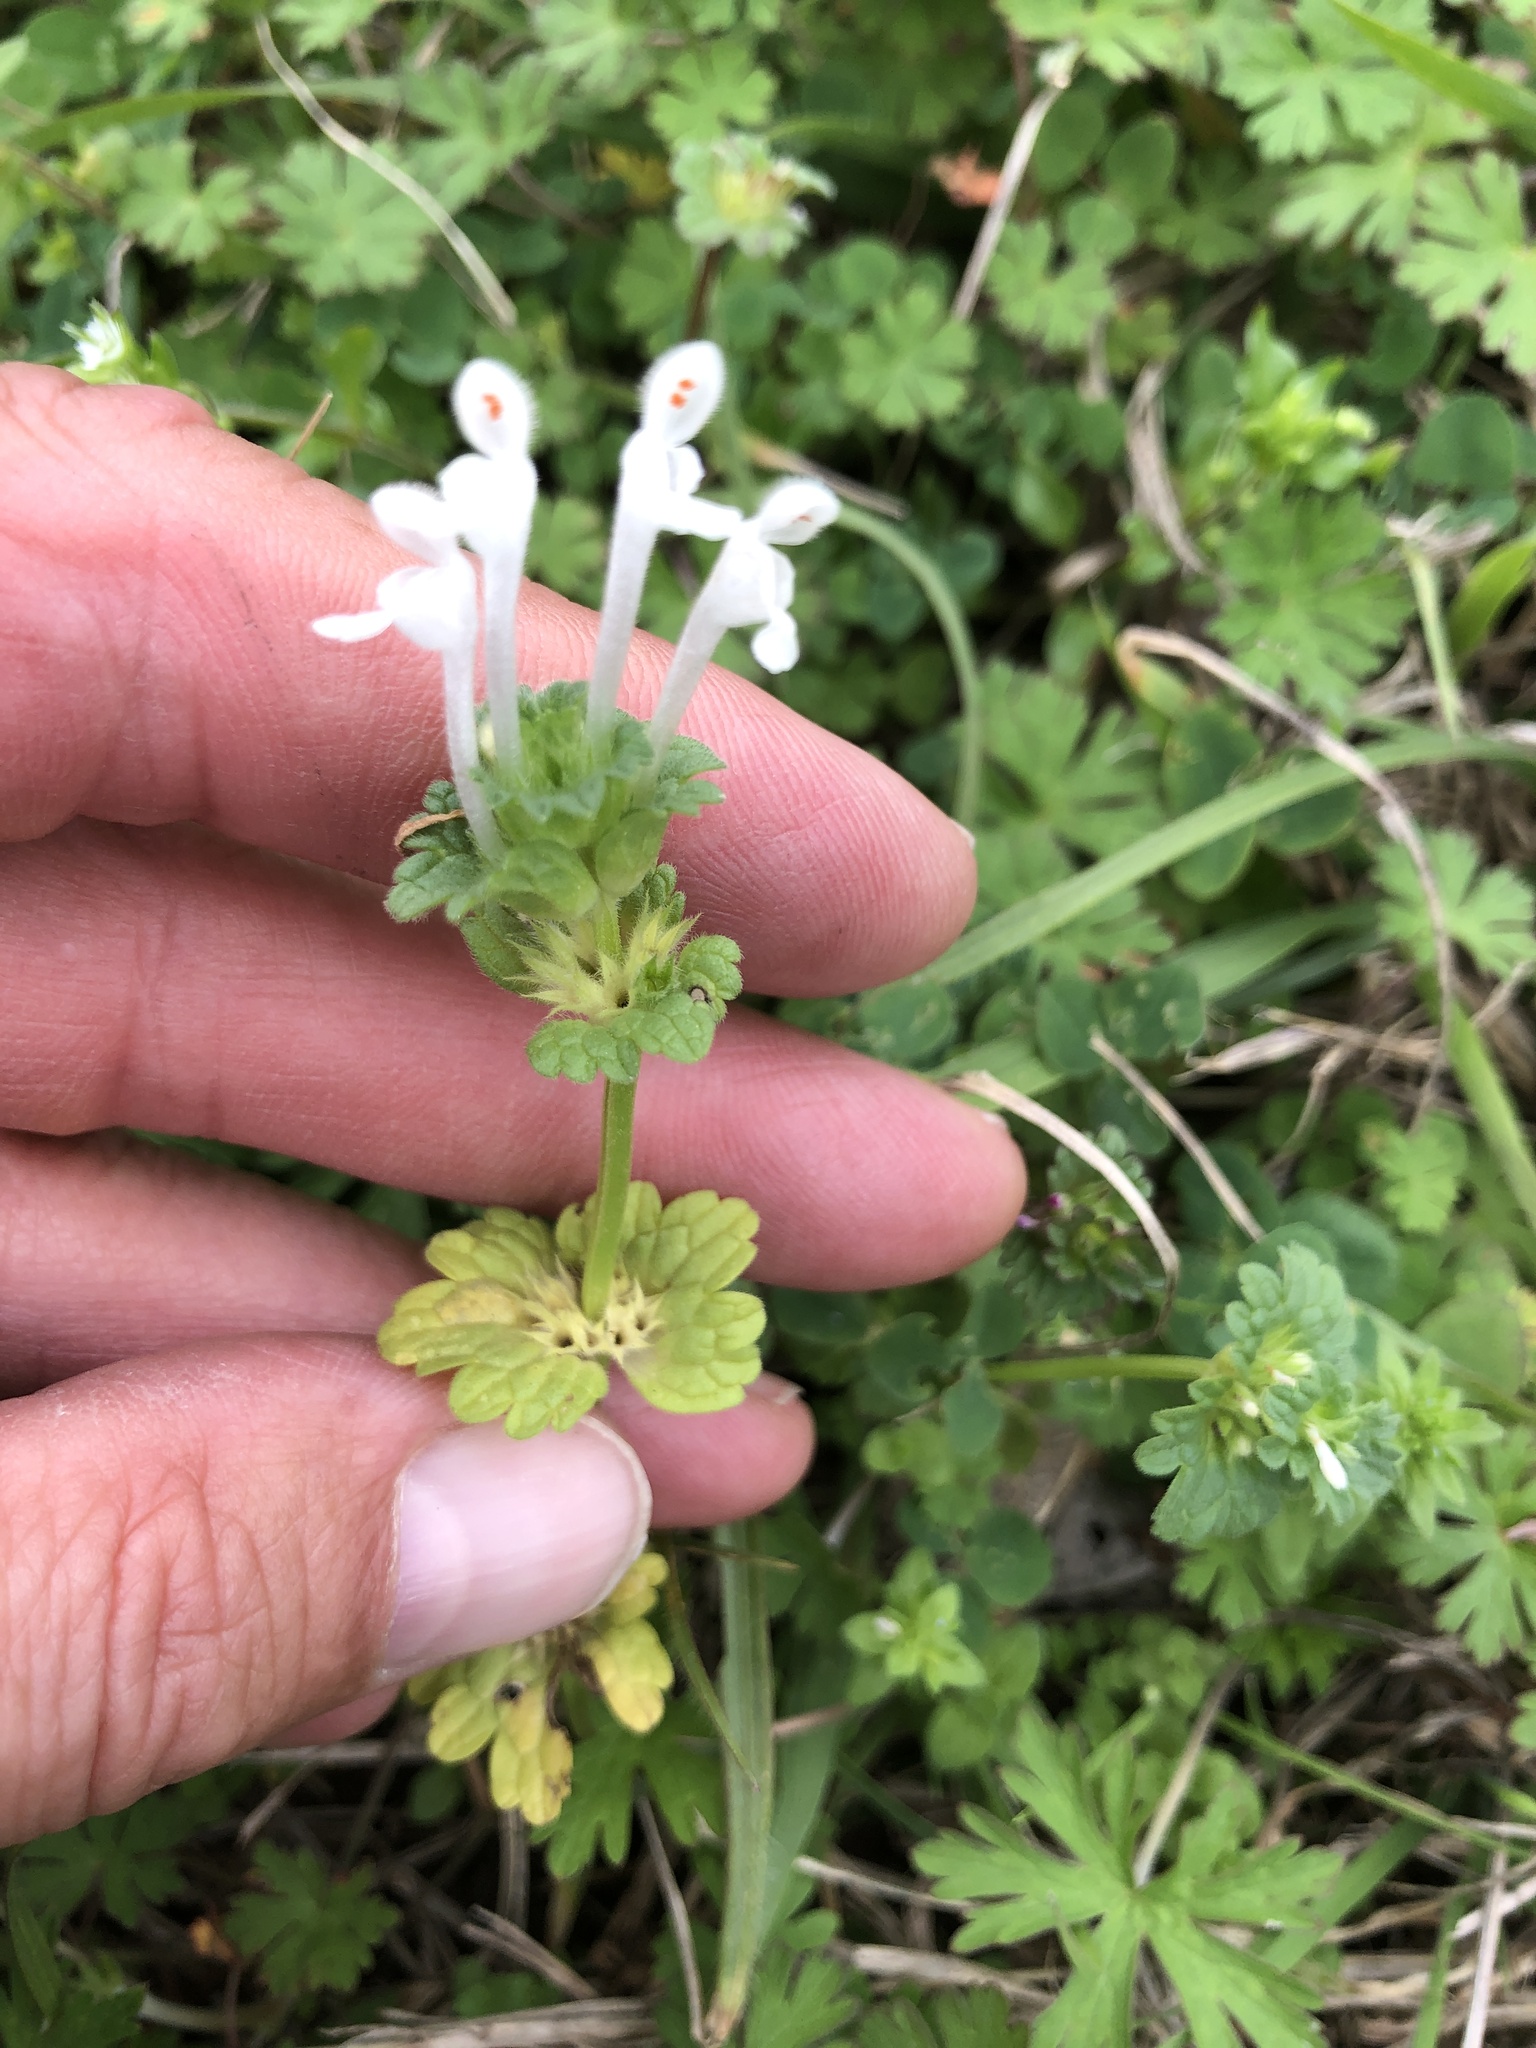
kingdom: Plantae
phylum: Tracheophyta
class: Magnoliopsida
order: Lamiales
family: Lamiaceae
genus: Lamium
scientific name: Lamium amplexicaule
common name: Henbit dead-nettle
